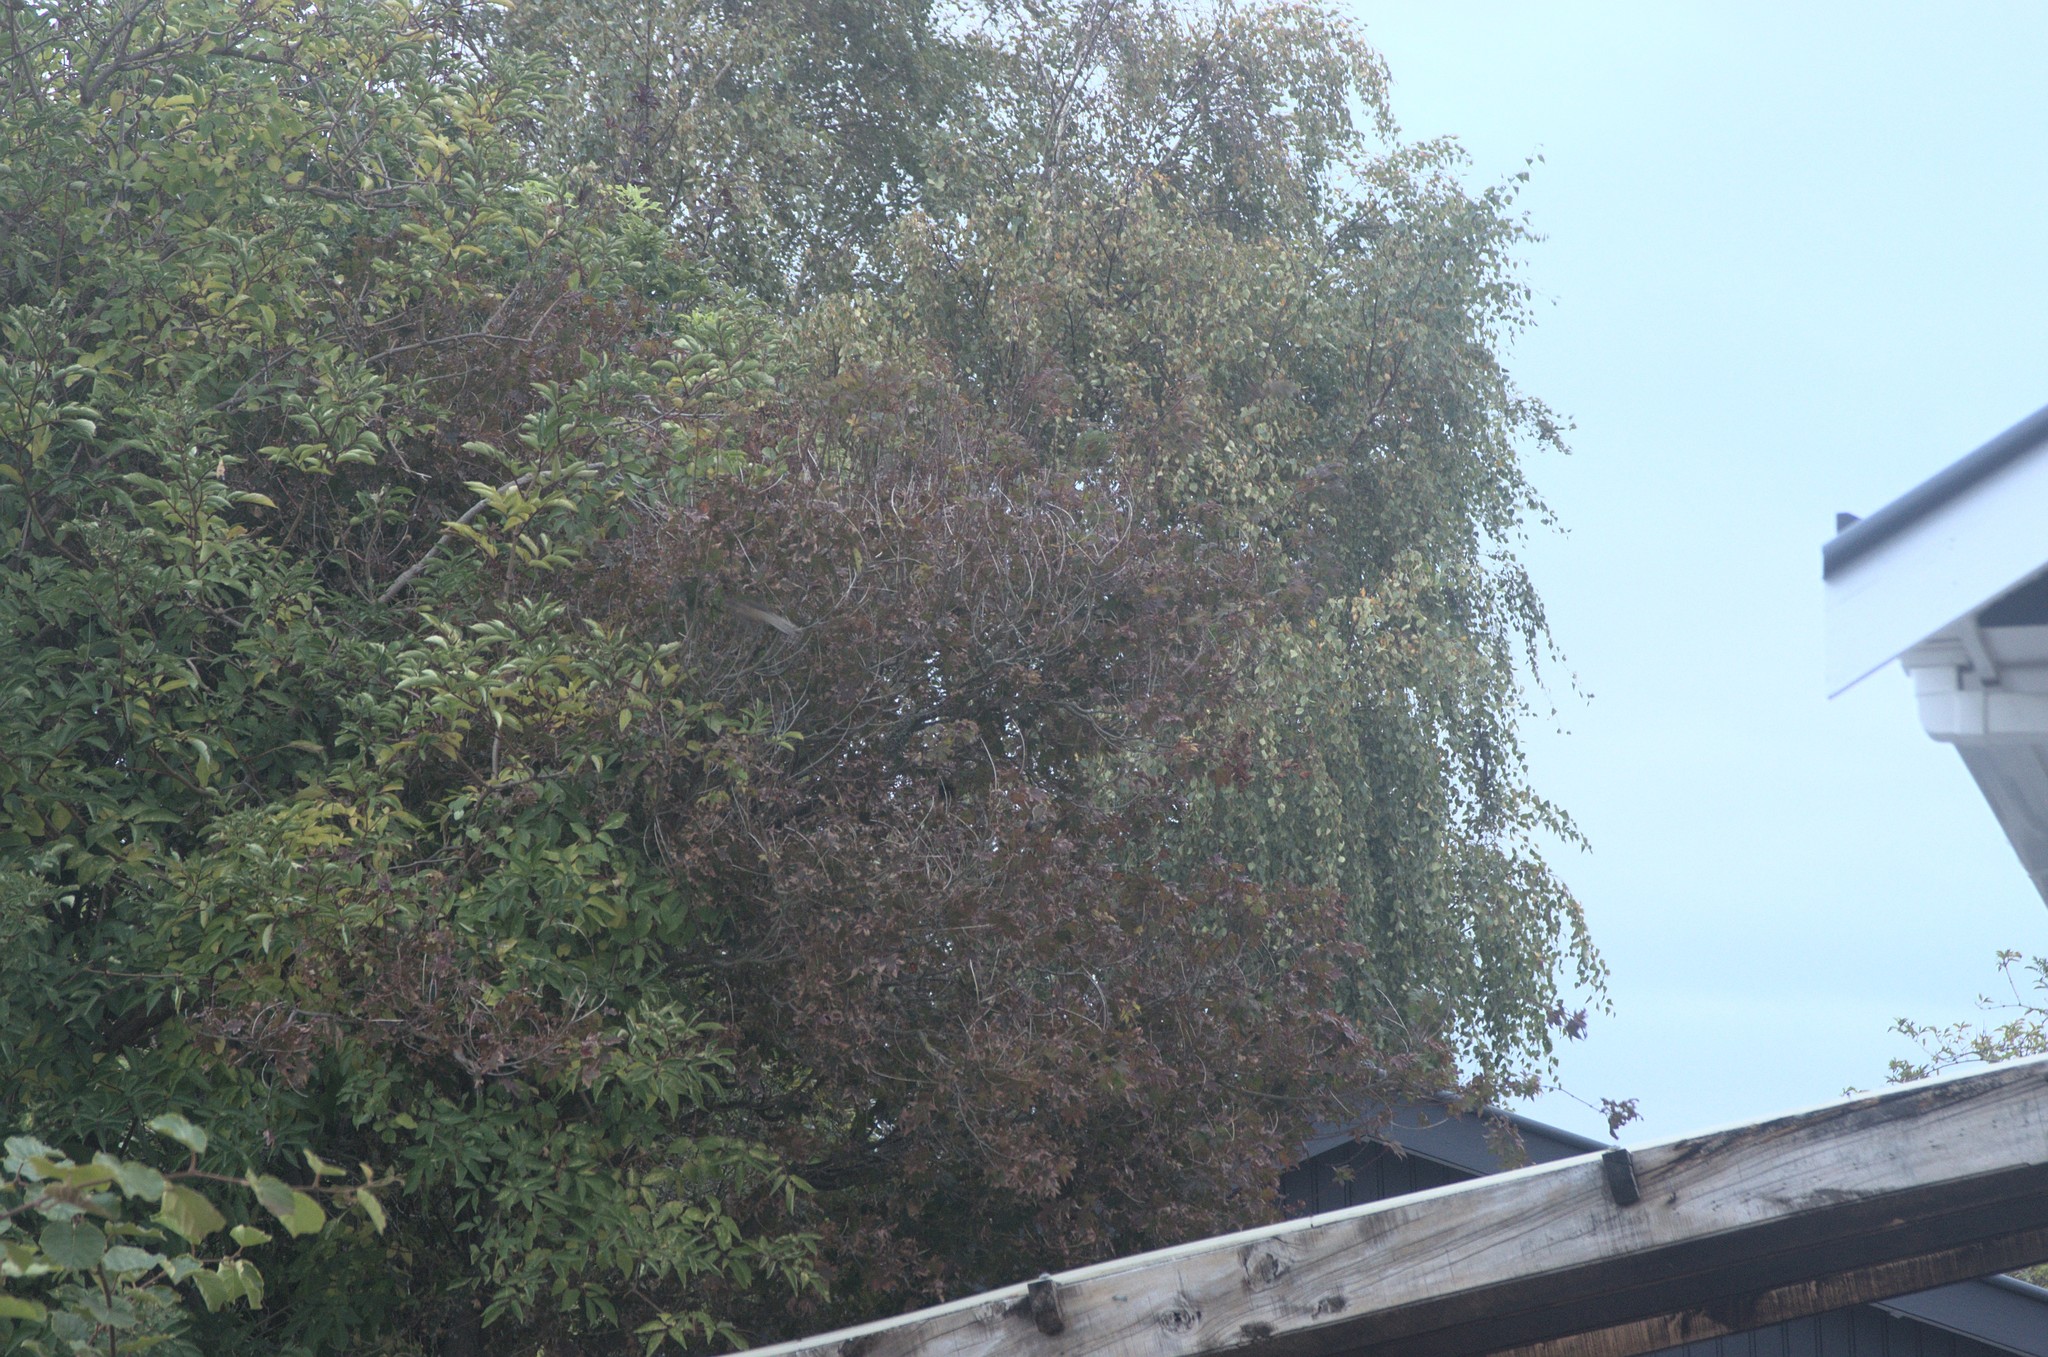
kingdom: Plantae
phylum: Tracheophyta
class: Magnoliopsida
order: Dipsacales
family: Viburnaceae
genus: Sambucus
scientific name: Sambucus nigra
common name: Elder
